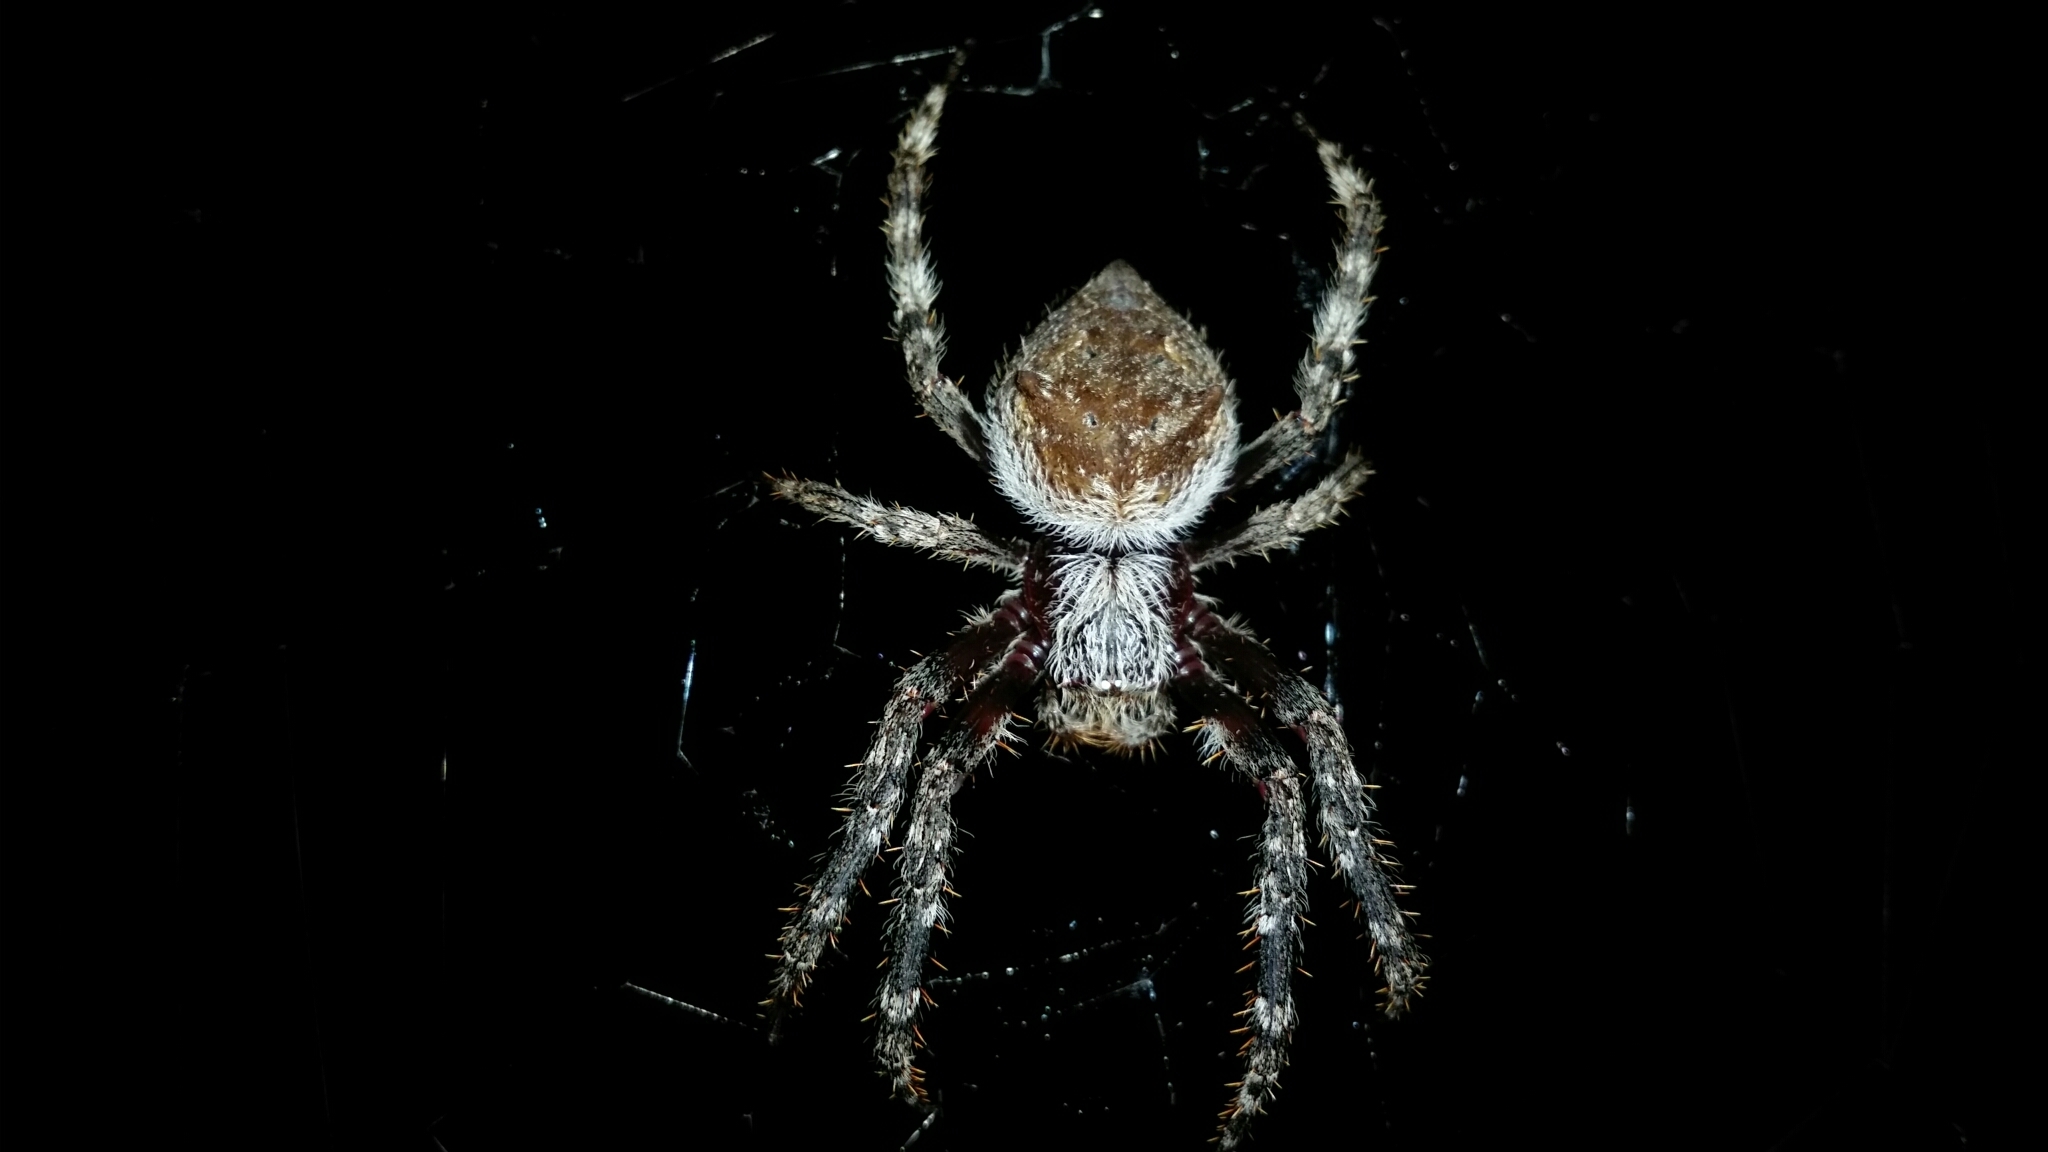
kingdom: Animalia
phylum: Arthropoda
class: Arachnida
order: Araneae
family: Araneidae
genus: Hortophora
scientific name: Hortophora biapicata
